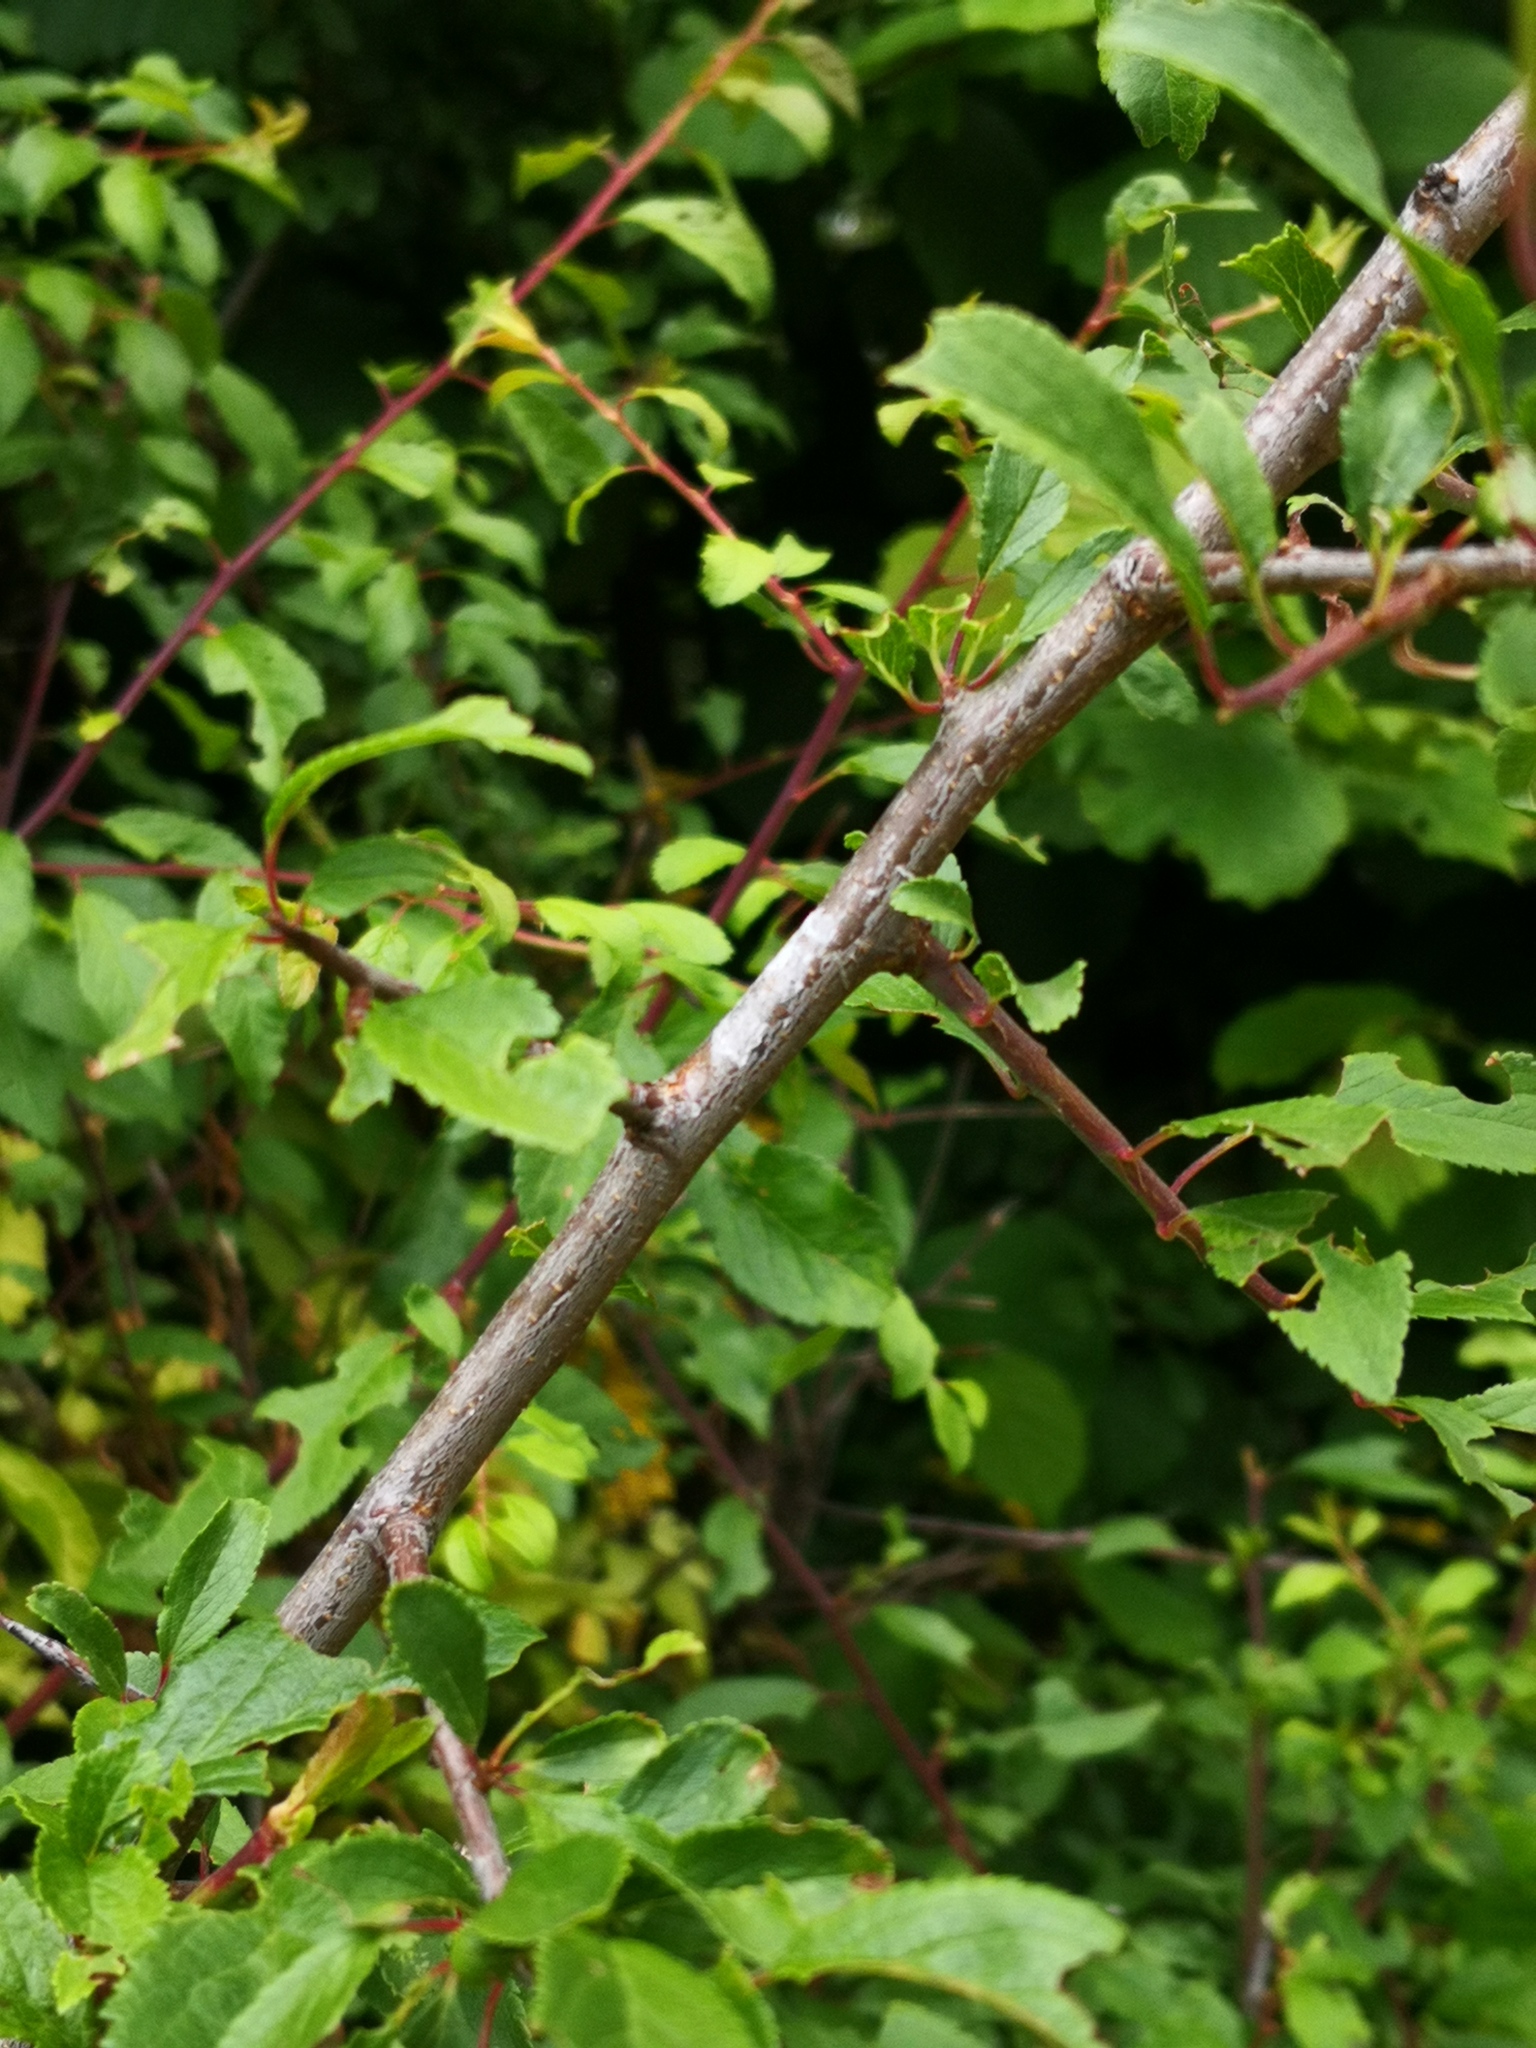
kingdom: Plantae
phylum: Tracheophyta
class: Magnoliopsida
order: Rosales
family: Rosaceae
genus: Prunus
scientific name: Prunus spinosa
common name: Blackthorn
